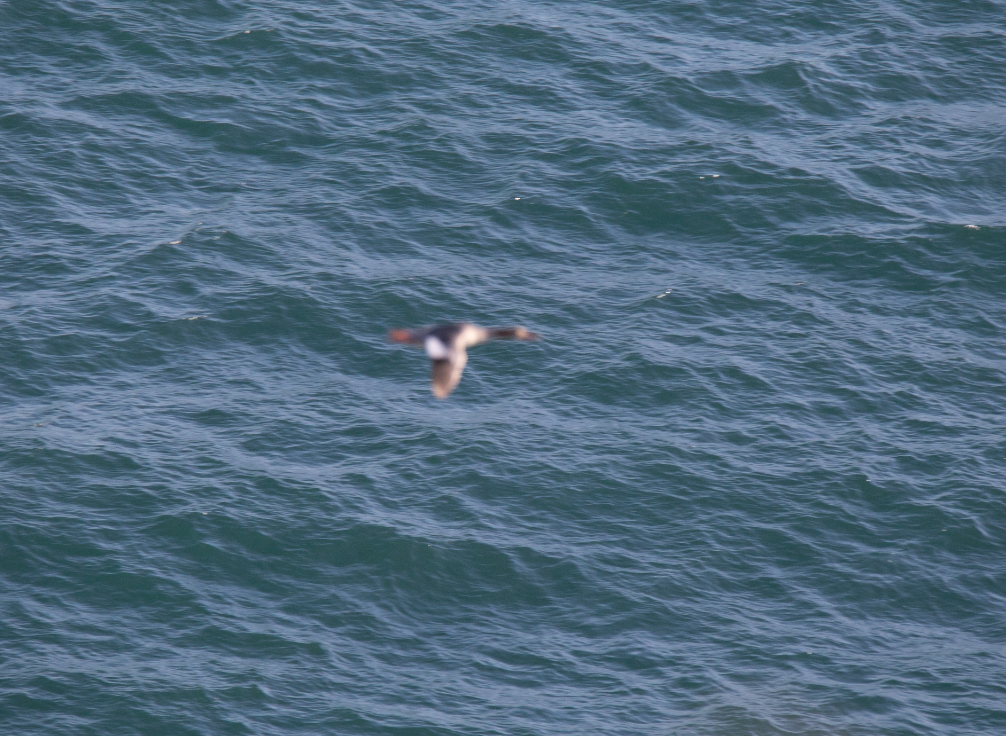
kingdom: Animalia
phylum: Chordata
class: Aves
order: Anseriformes
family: Anatidae
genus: Mergus
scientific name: Mergus merganser
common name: Common merganser
